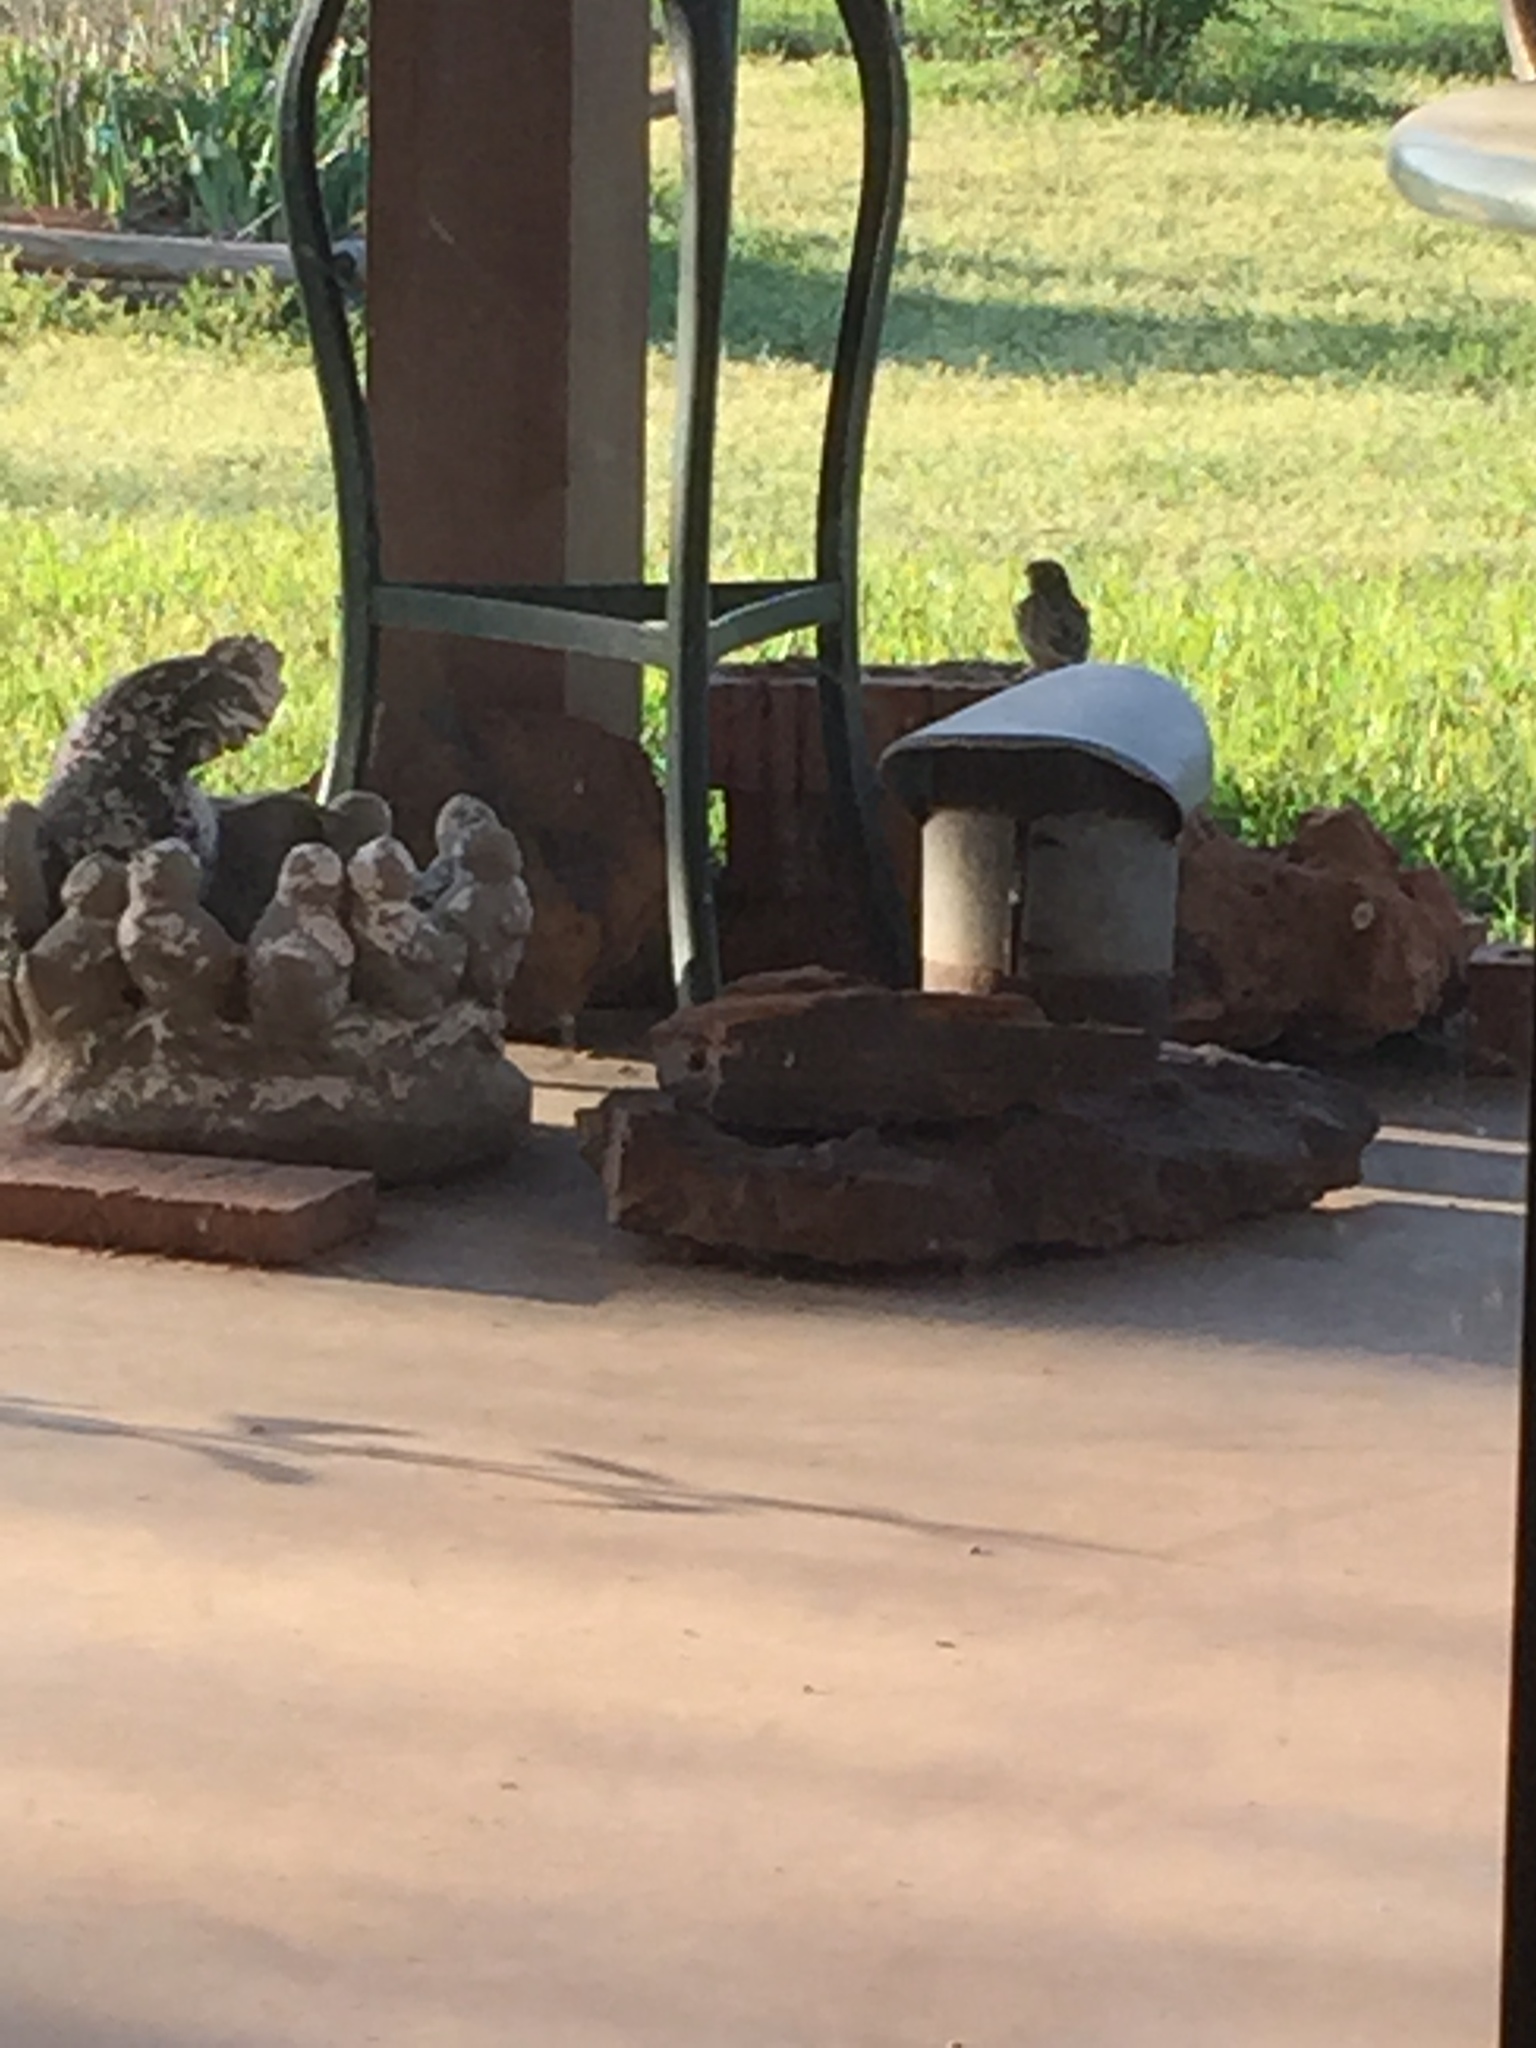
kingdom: Animalia
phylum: Chordata
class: Aves
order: Passeriformes
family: Passeridae
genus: Passer
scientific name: Passer domesticus
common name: House sparrow
